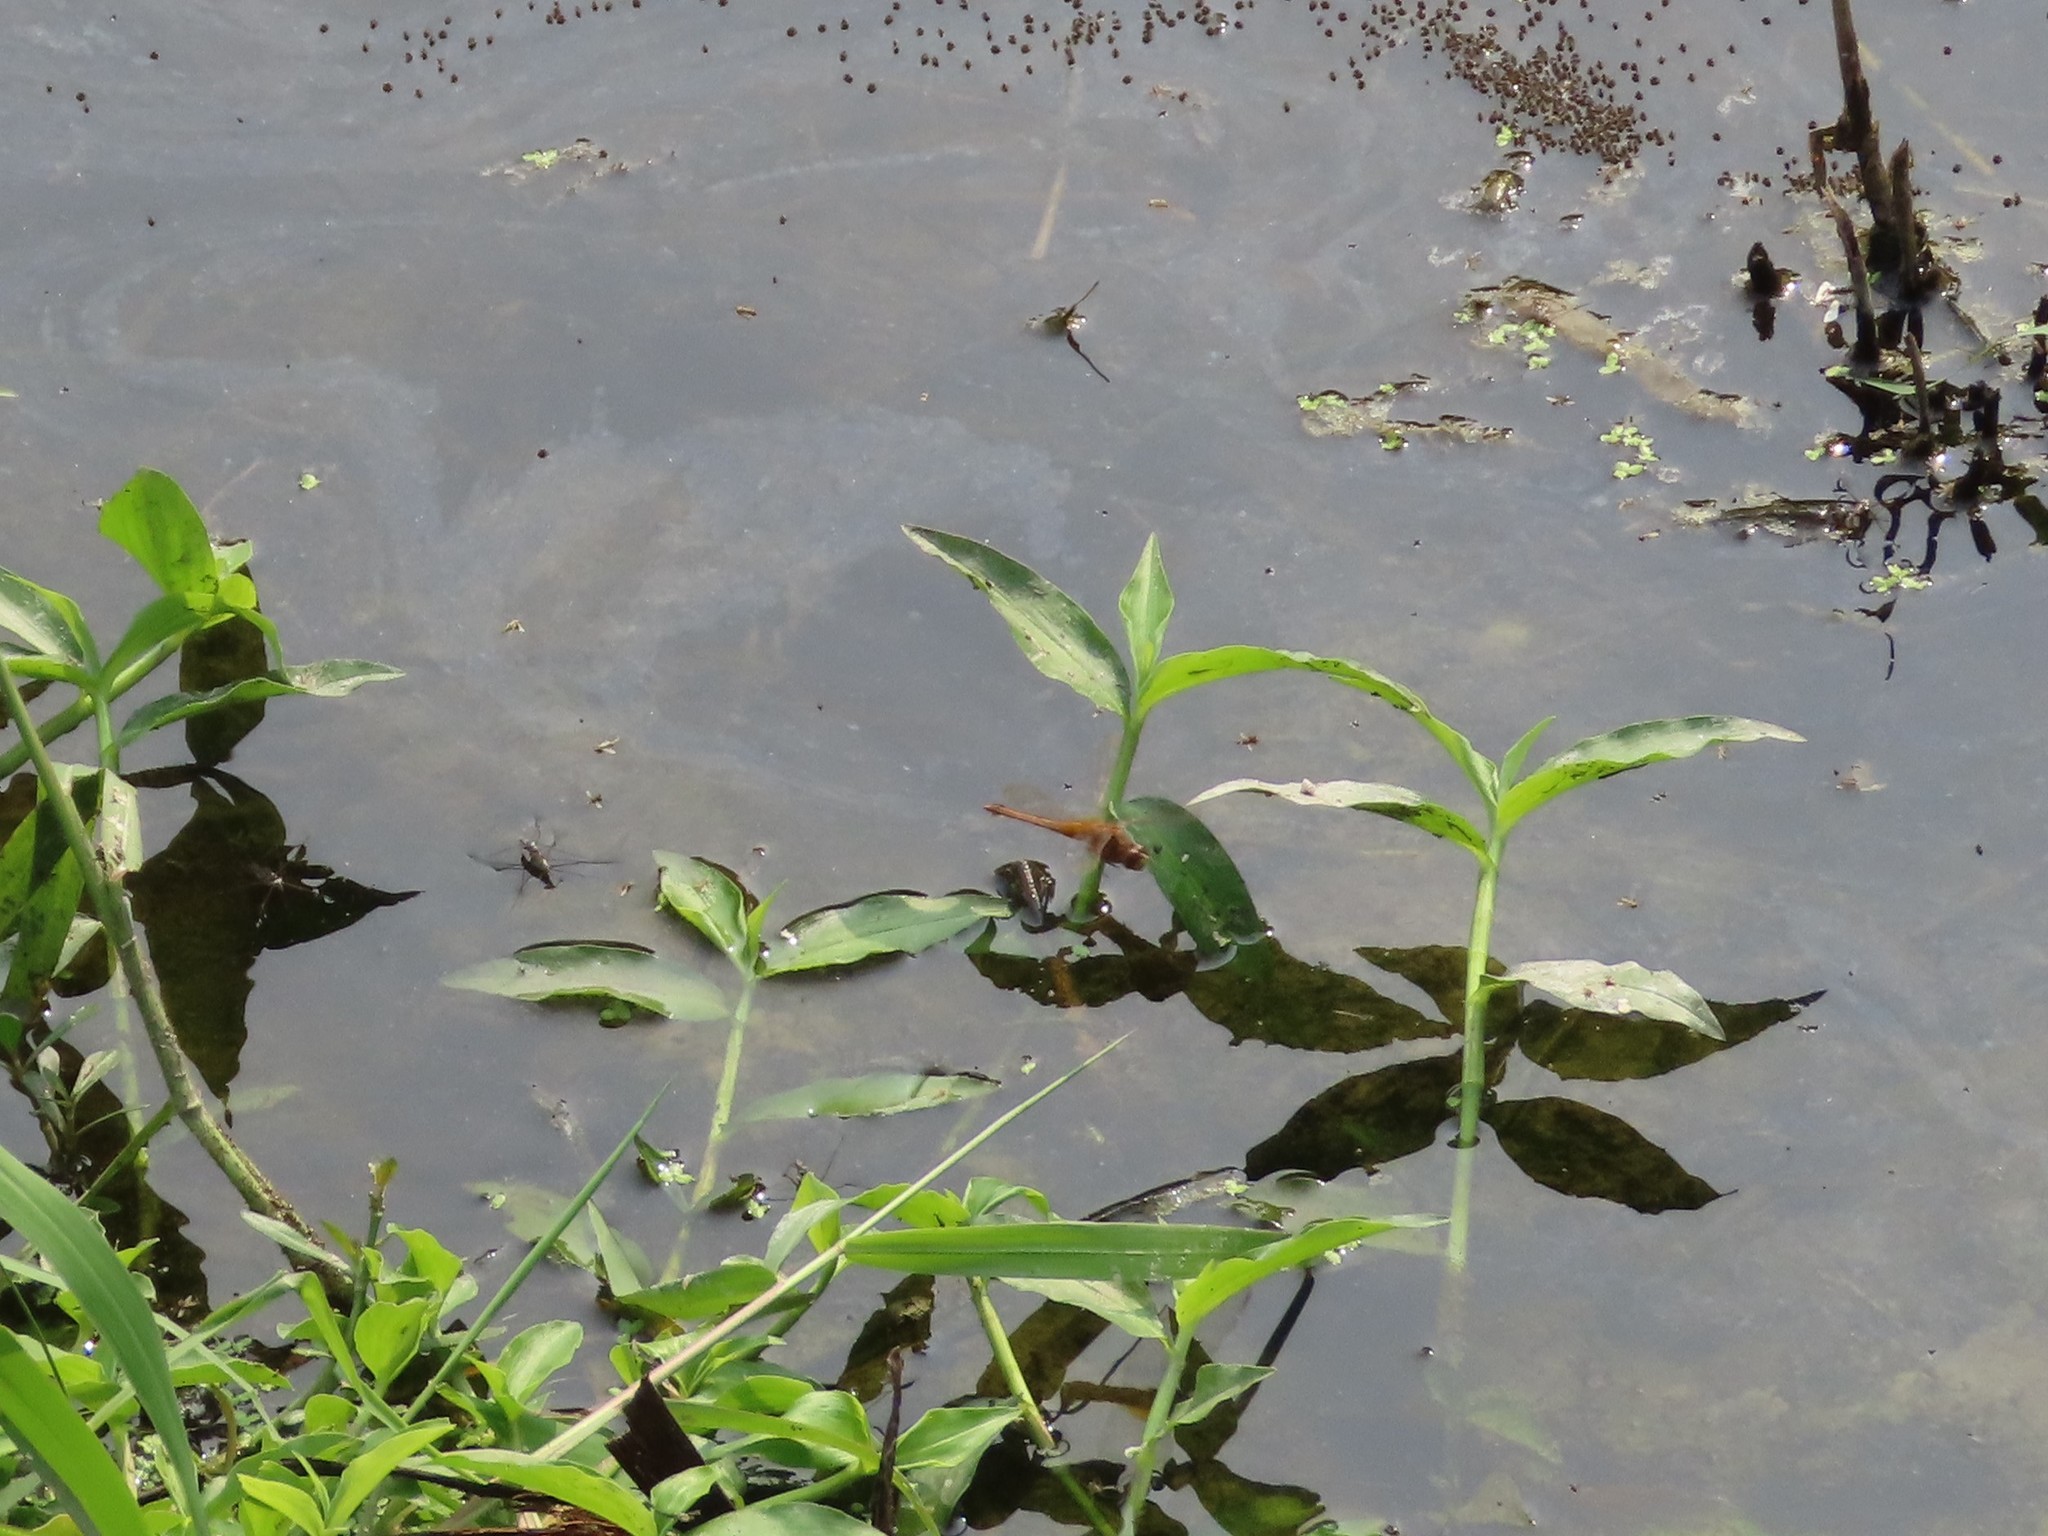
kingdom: Animalia
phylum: Arthropoda
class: Insecta
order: Odonata
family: Libellulidae
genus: Crocothemis
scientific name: Crocothemis servilia
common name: Scarlet skimmer
